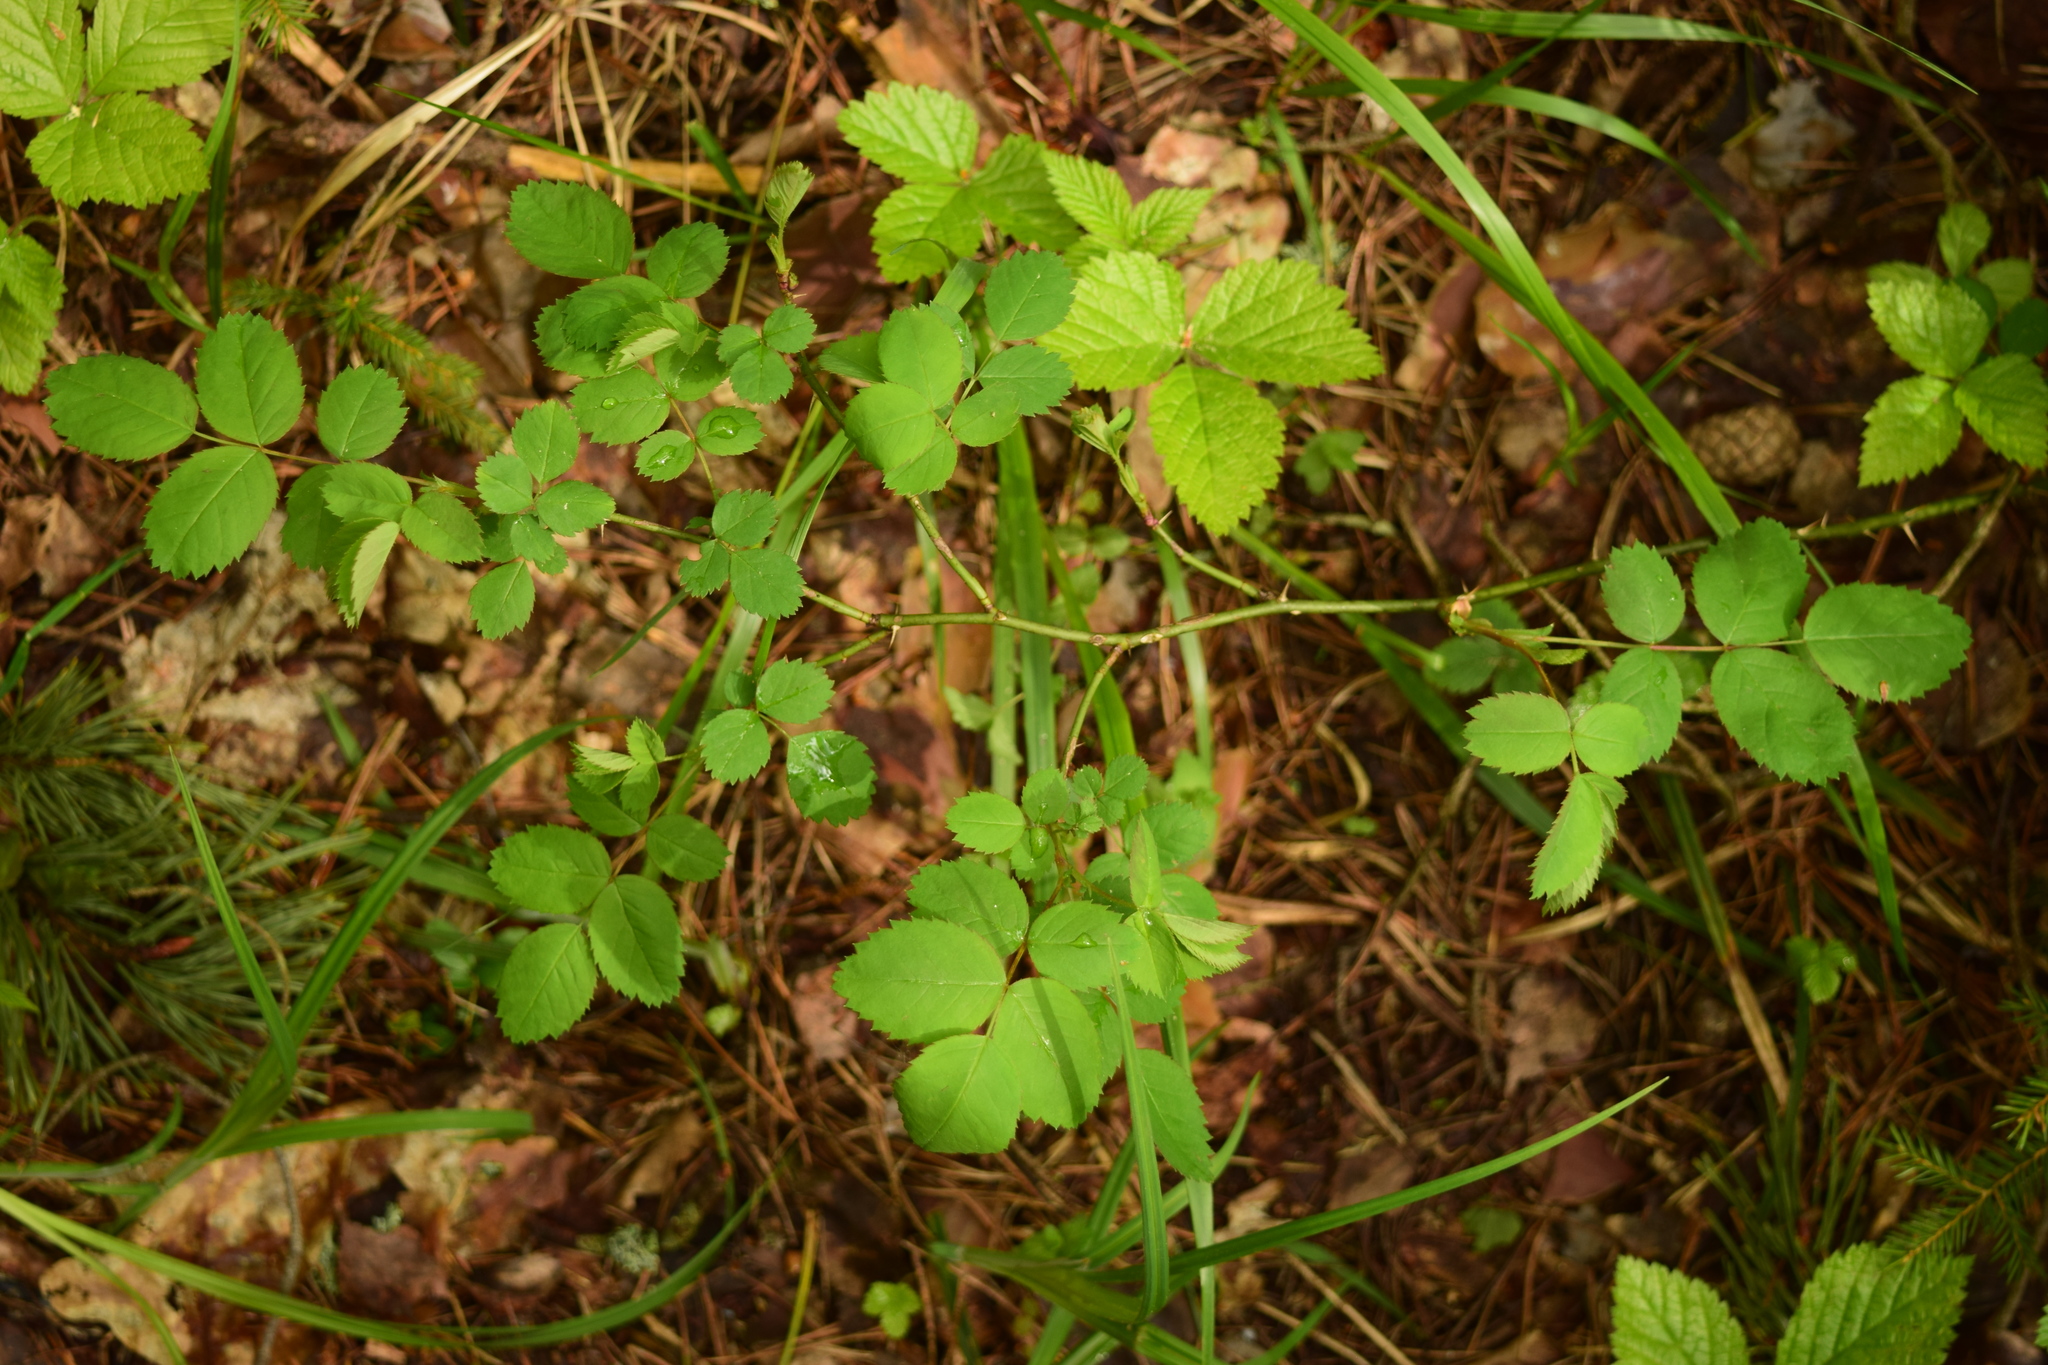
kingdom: Plantae
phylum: Tracheophyta
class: Magnoliopsida
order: Rosales
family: Rosaceae
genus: Rosa
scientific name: Rosa
